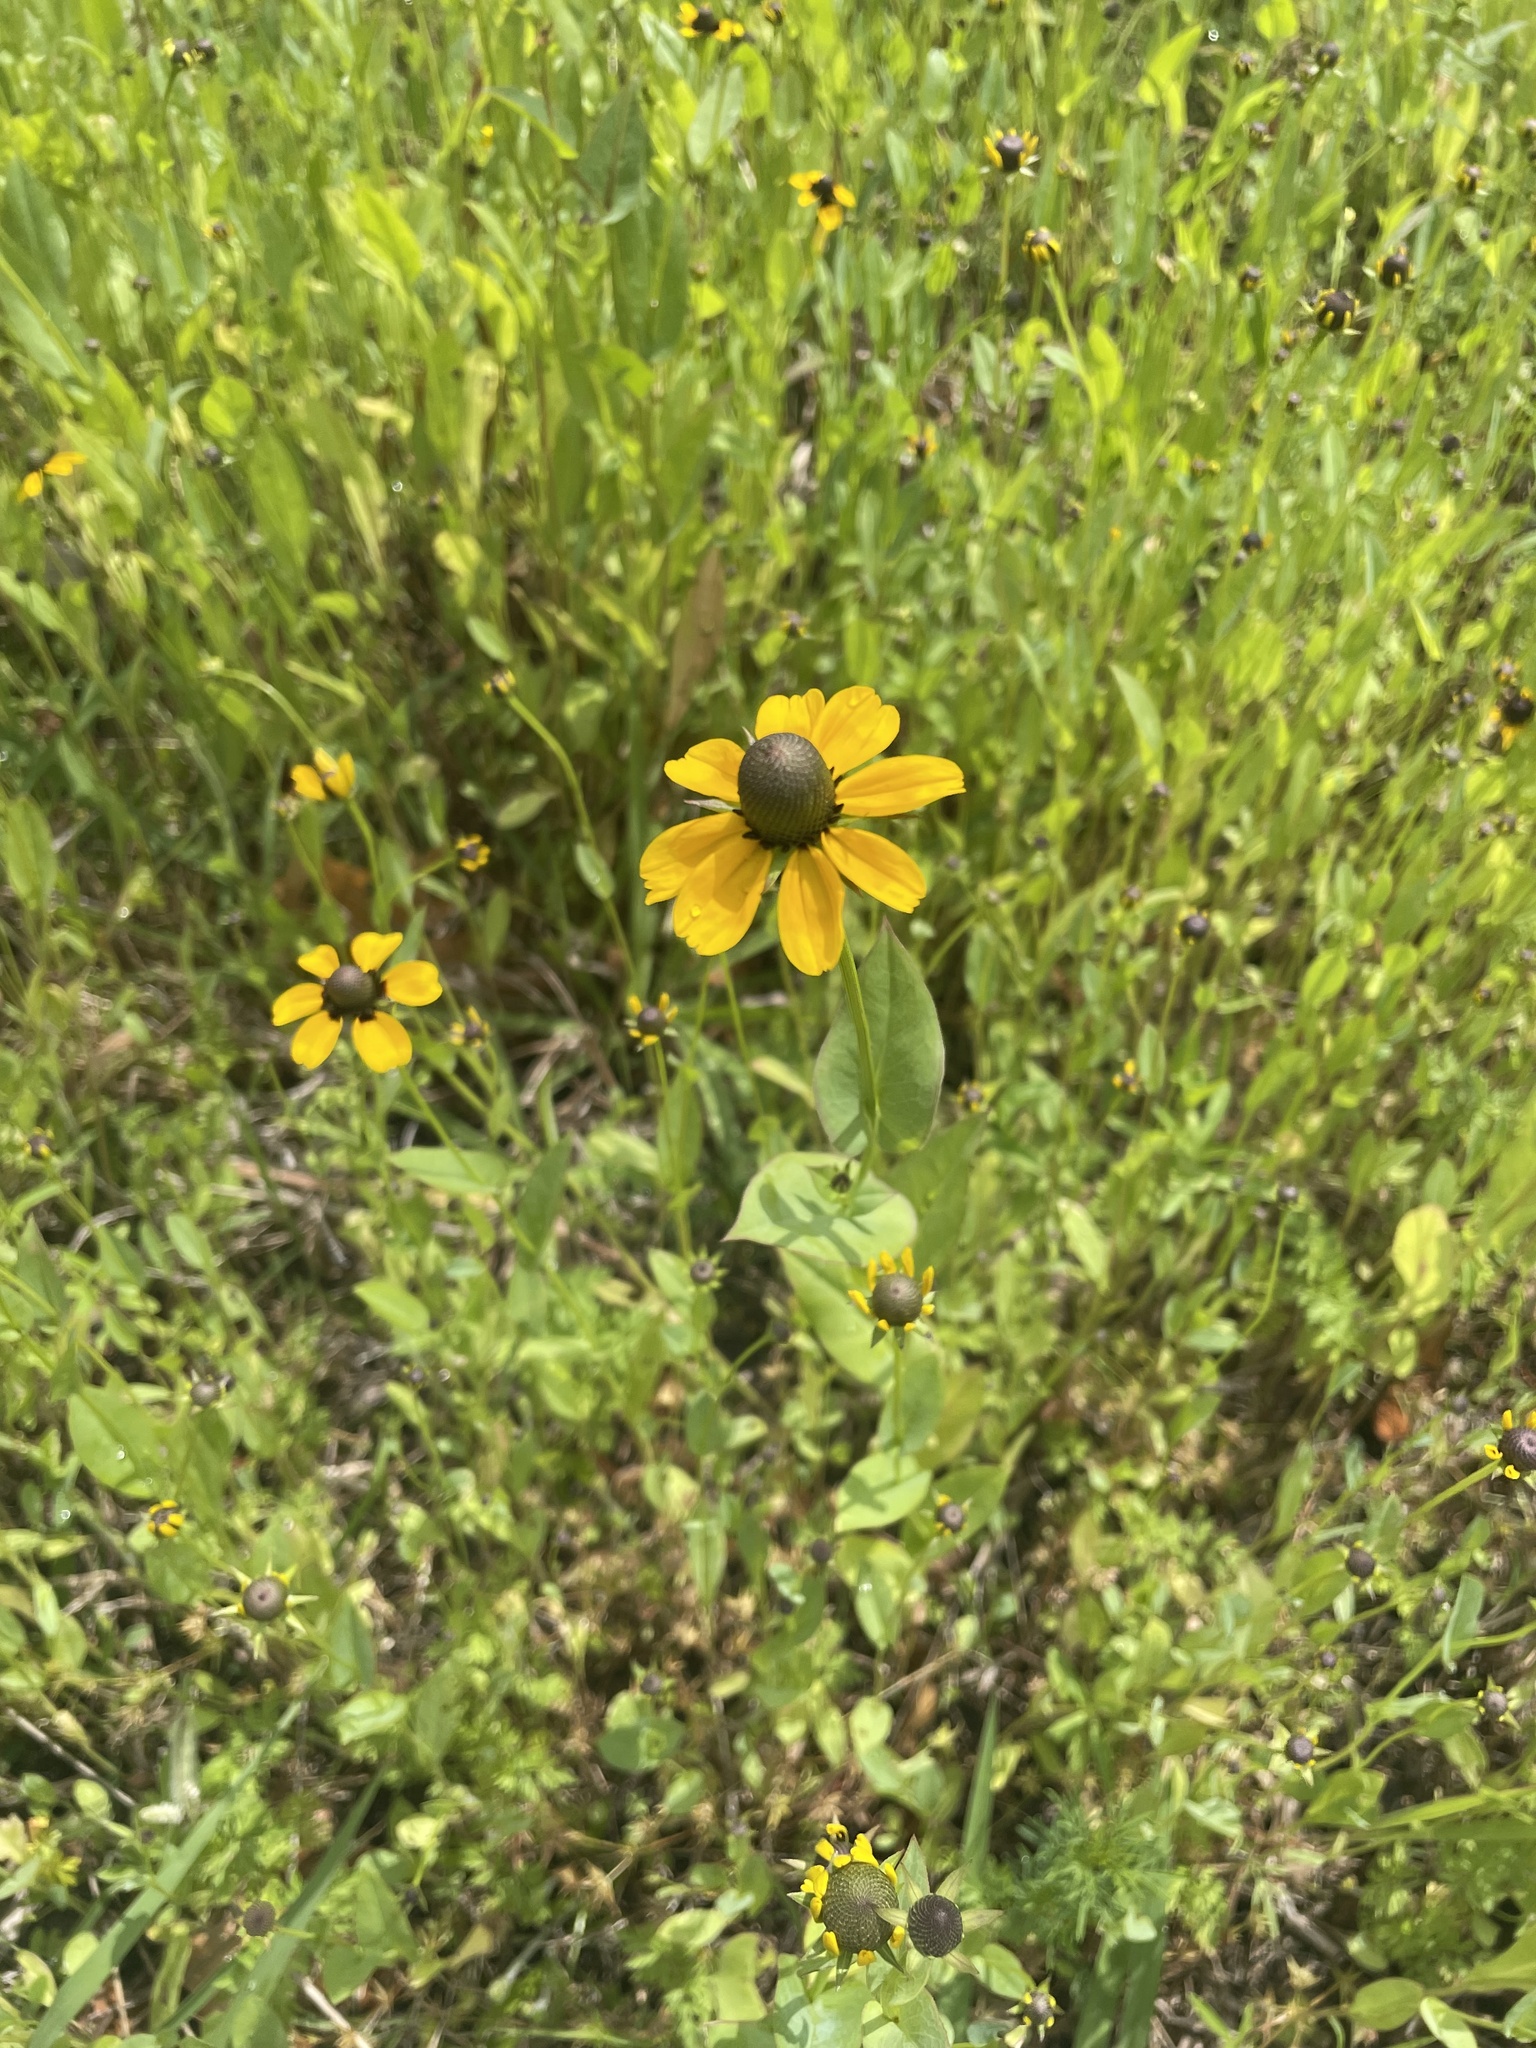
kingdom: Plantae
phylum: Tracheophyta
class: Magnoliopsida
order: Asterales
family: Asteraceae
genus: Rudbeckia
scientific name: Rudbeckia amplexicaulis
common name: Clasping-leaf coneflower
